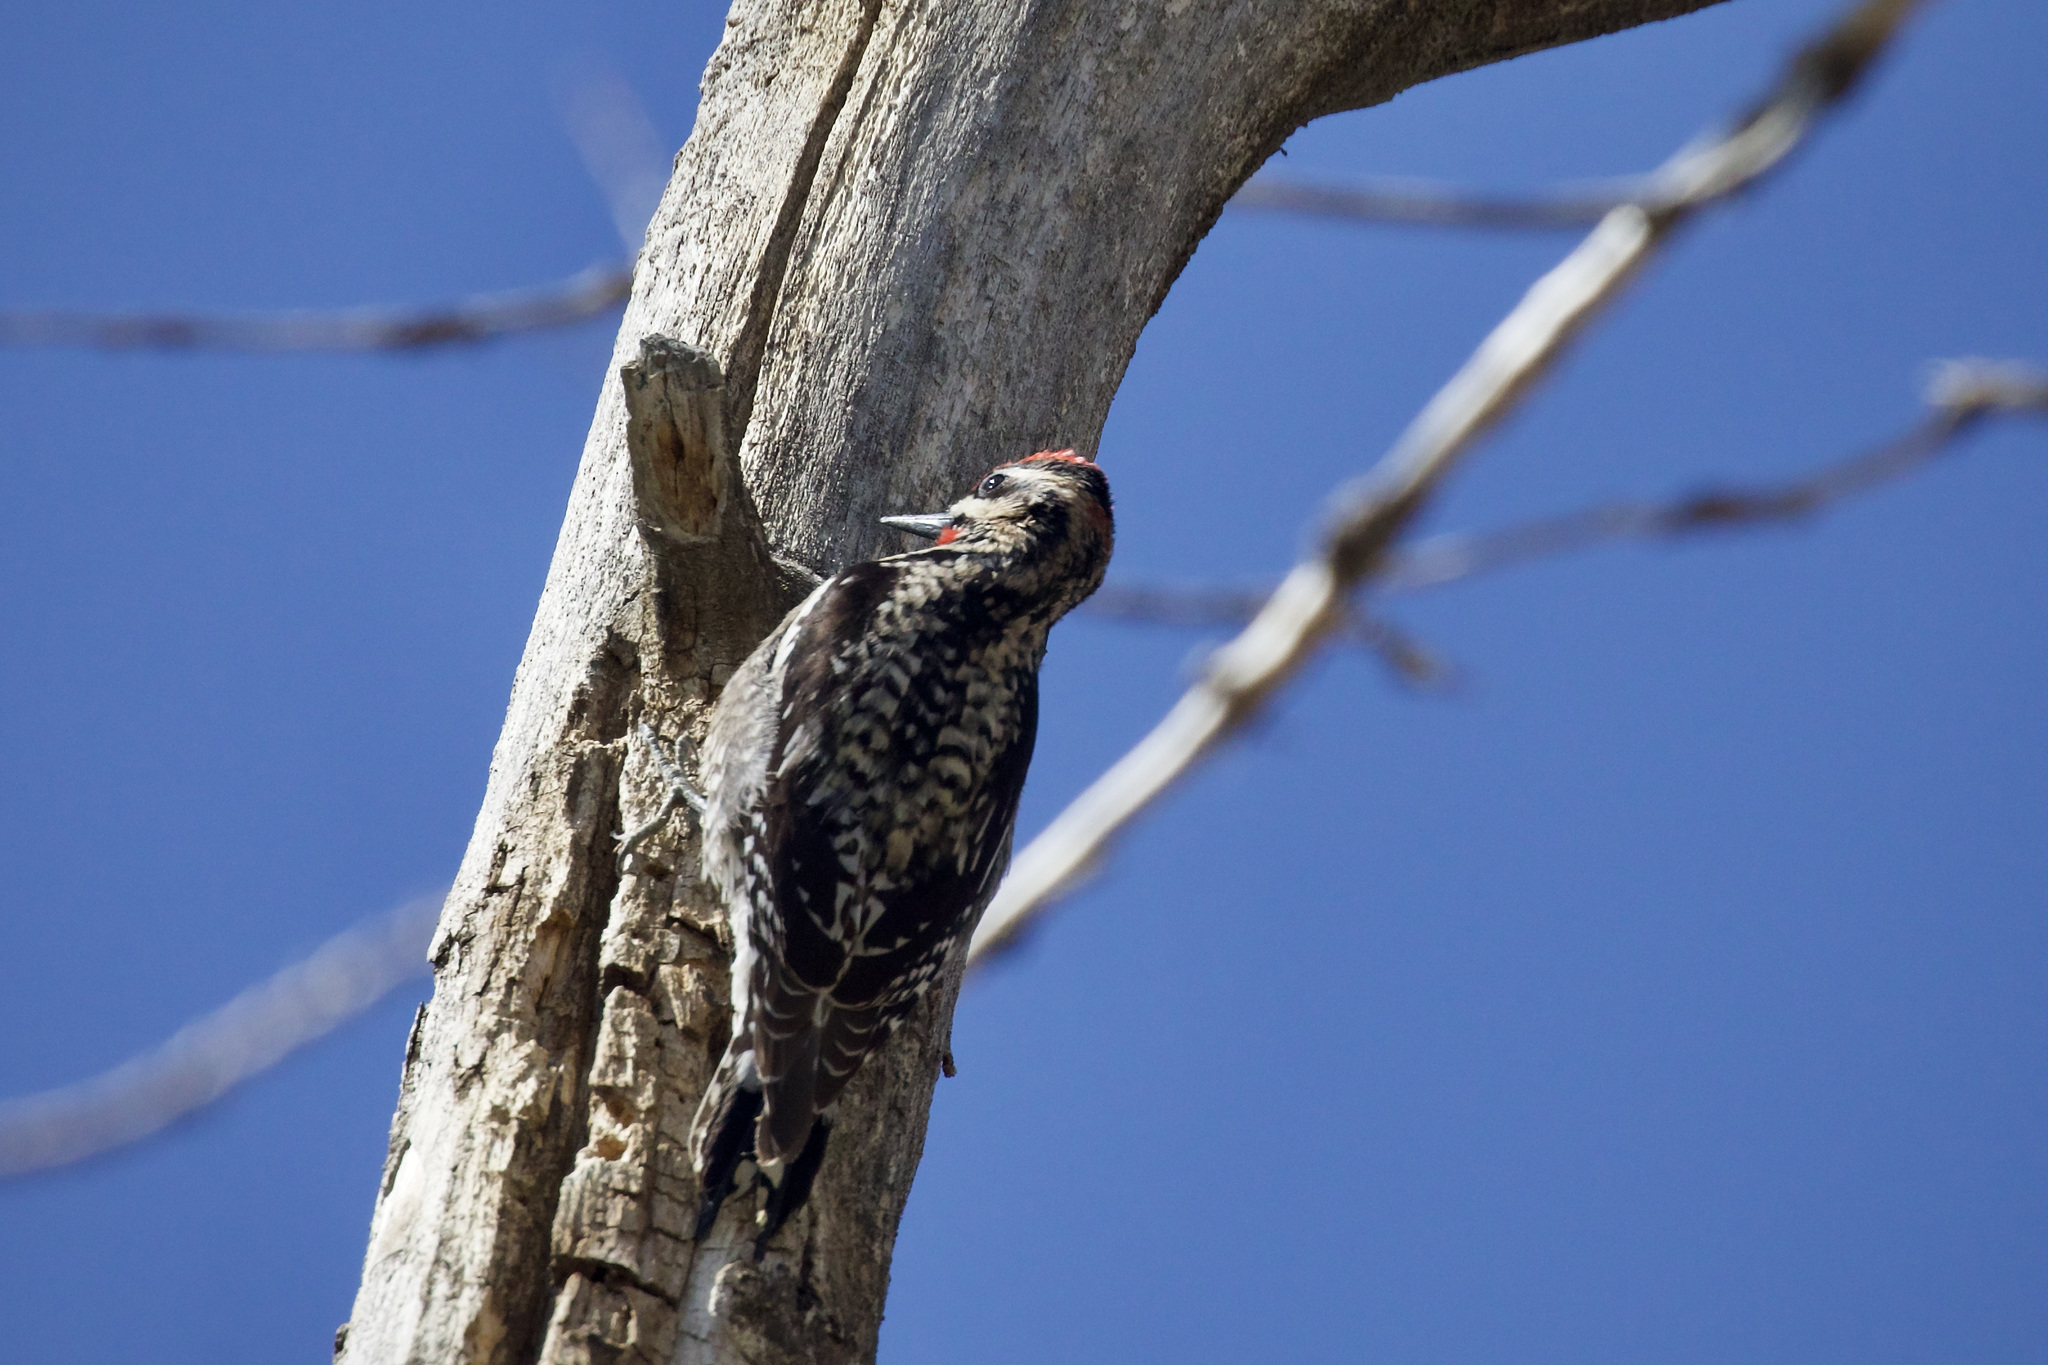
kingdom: Animalia
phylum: Chordata
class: Aves
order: Piciformes
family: Picidae
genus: Sphyrapicus
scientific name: Sphyrapicus nuchalis
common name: Red-naped sapsucker
